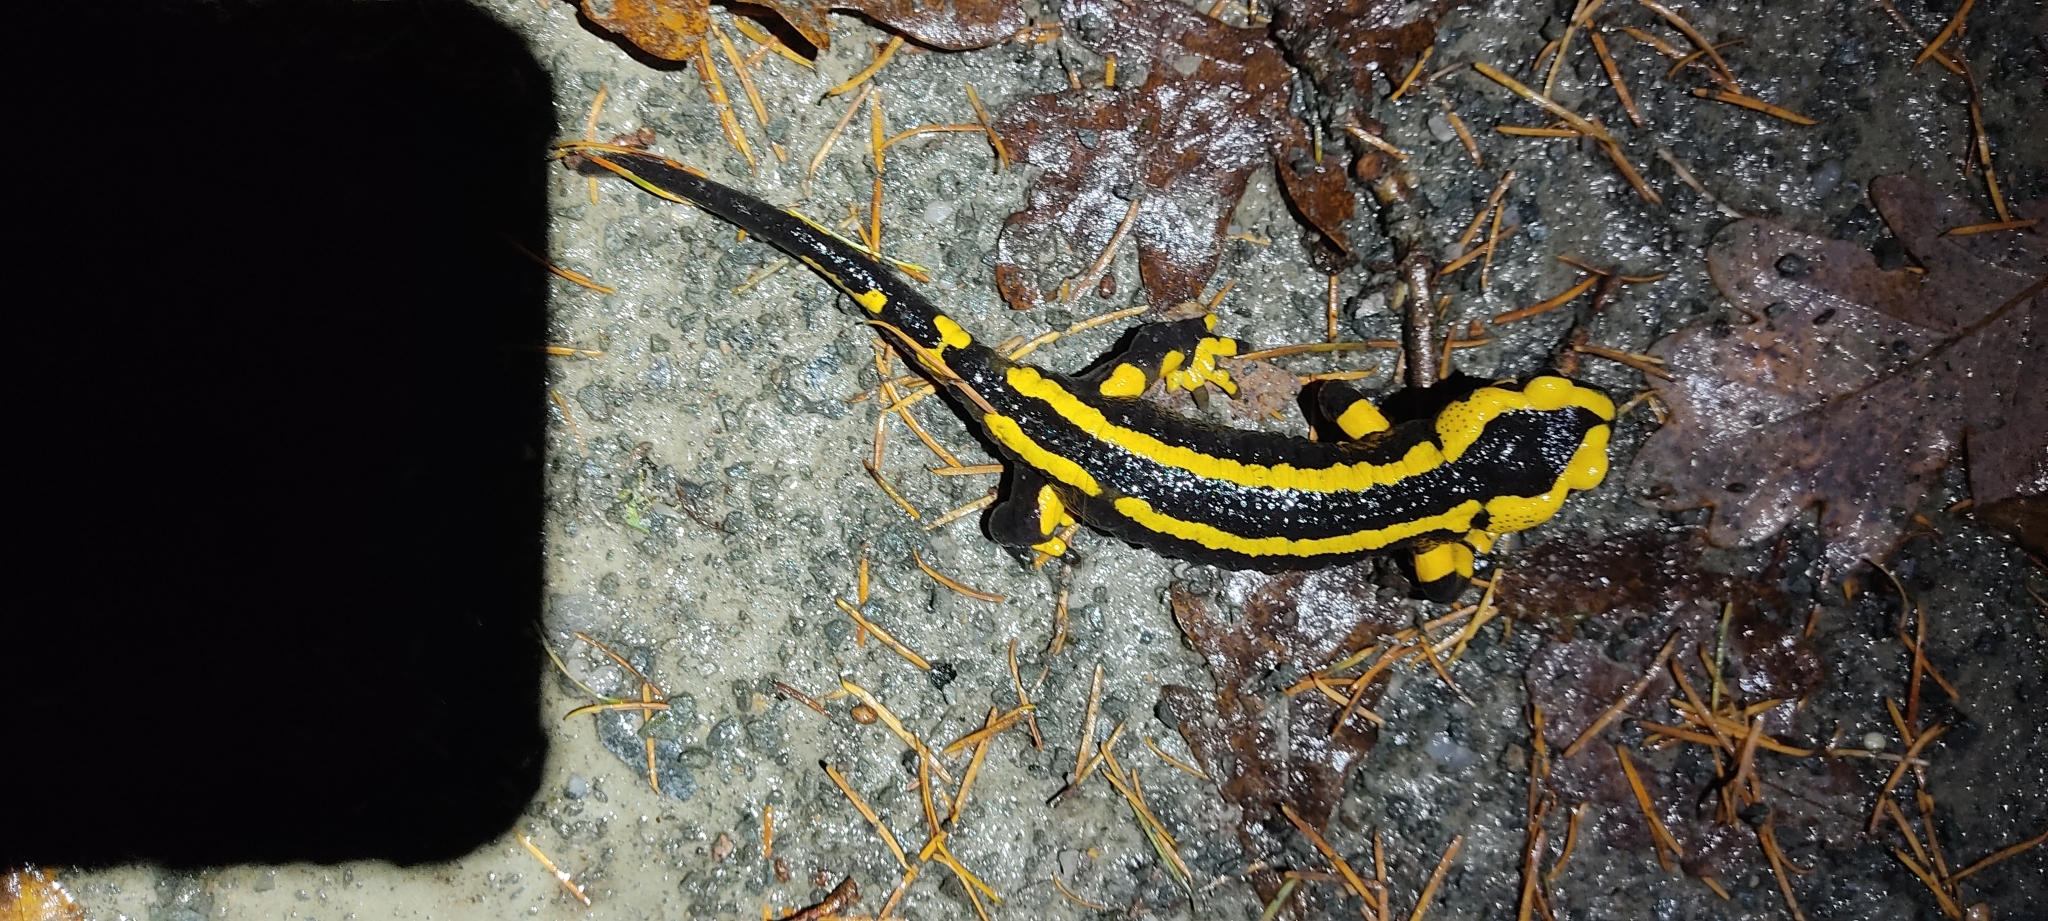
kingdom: Animalia
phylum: Chordata
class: Amphibia
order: Caudata
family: Salamandridae
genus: Salamandra
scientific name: Salamandra salamandra
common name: Fire salamander
